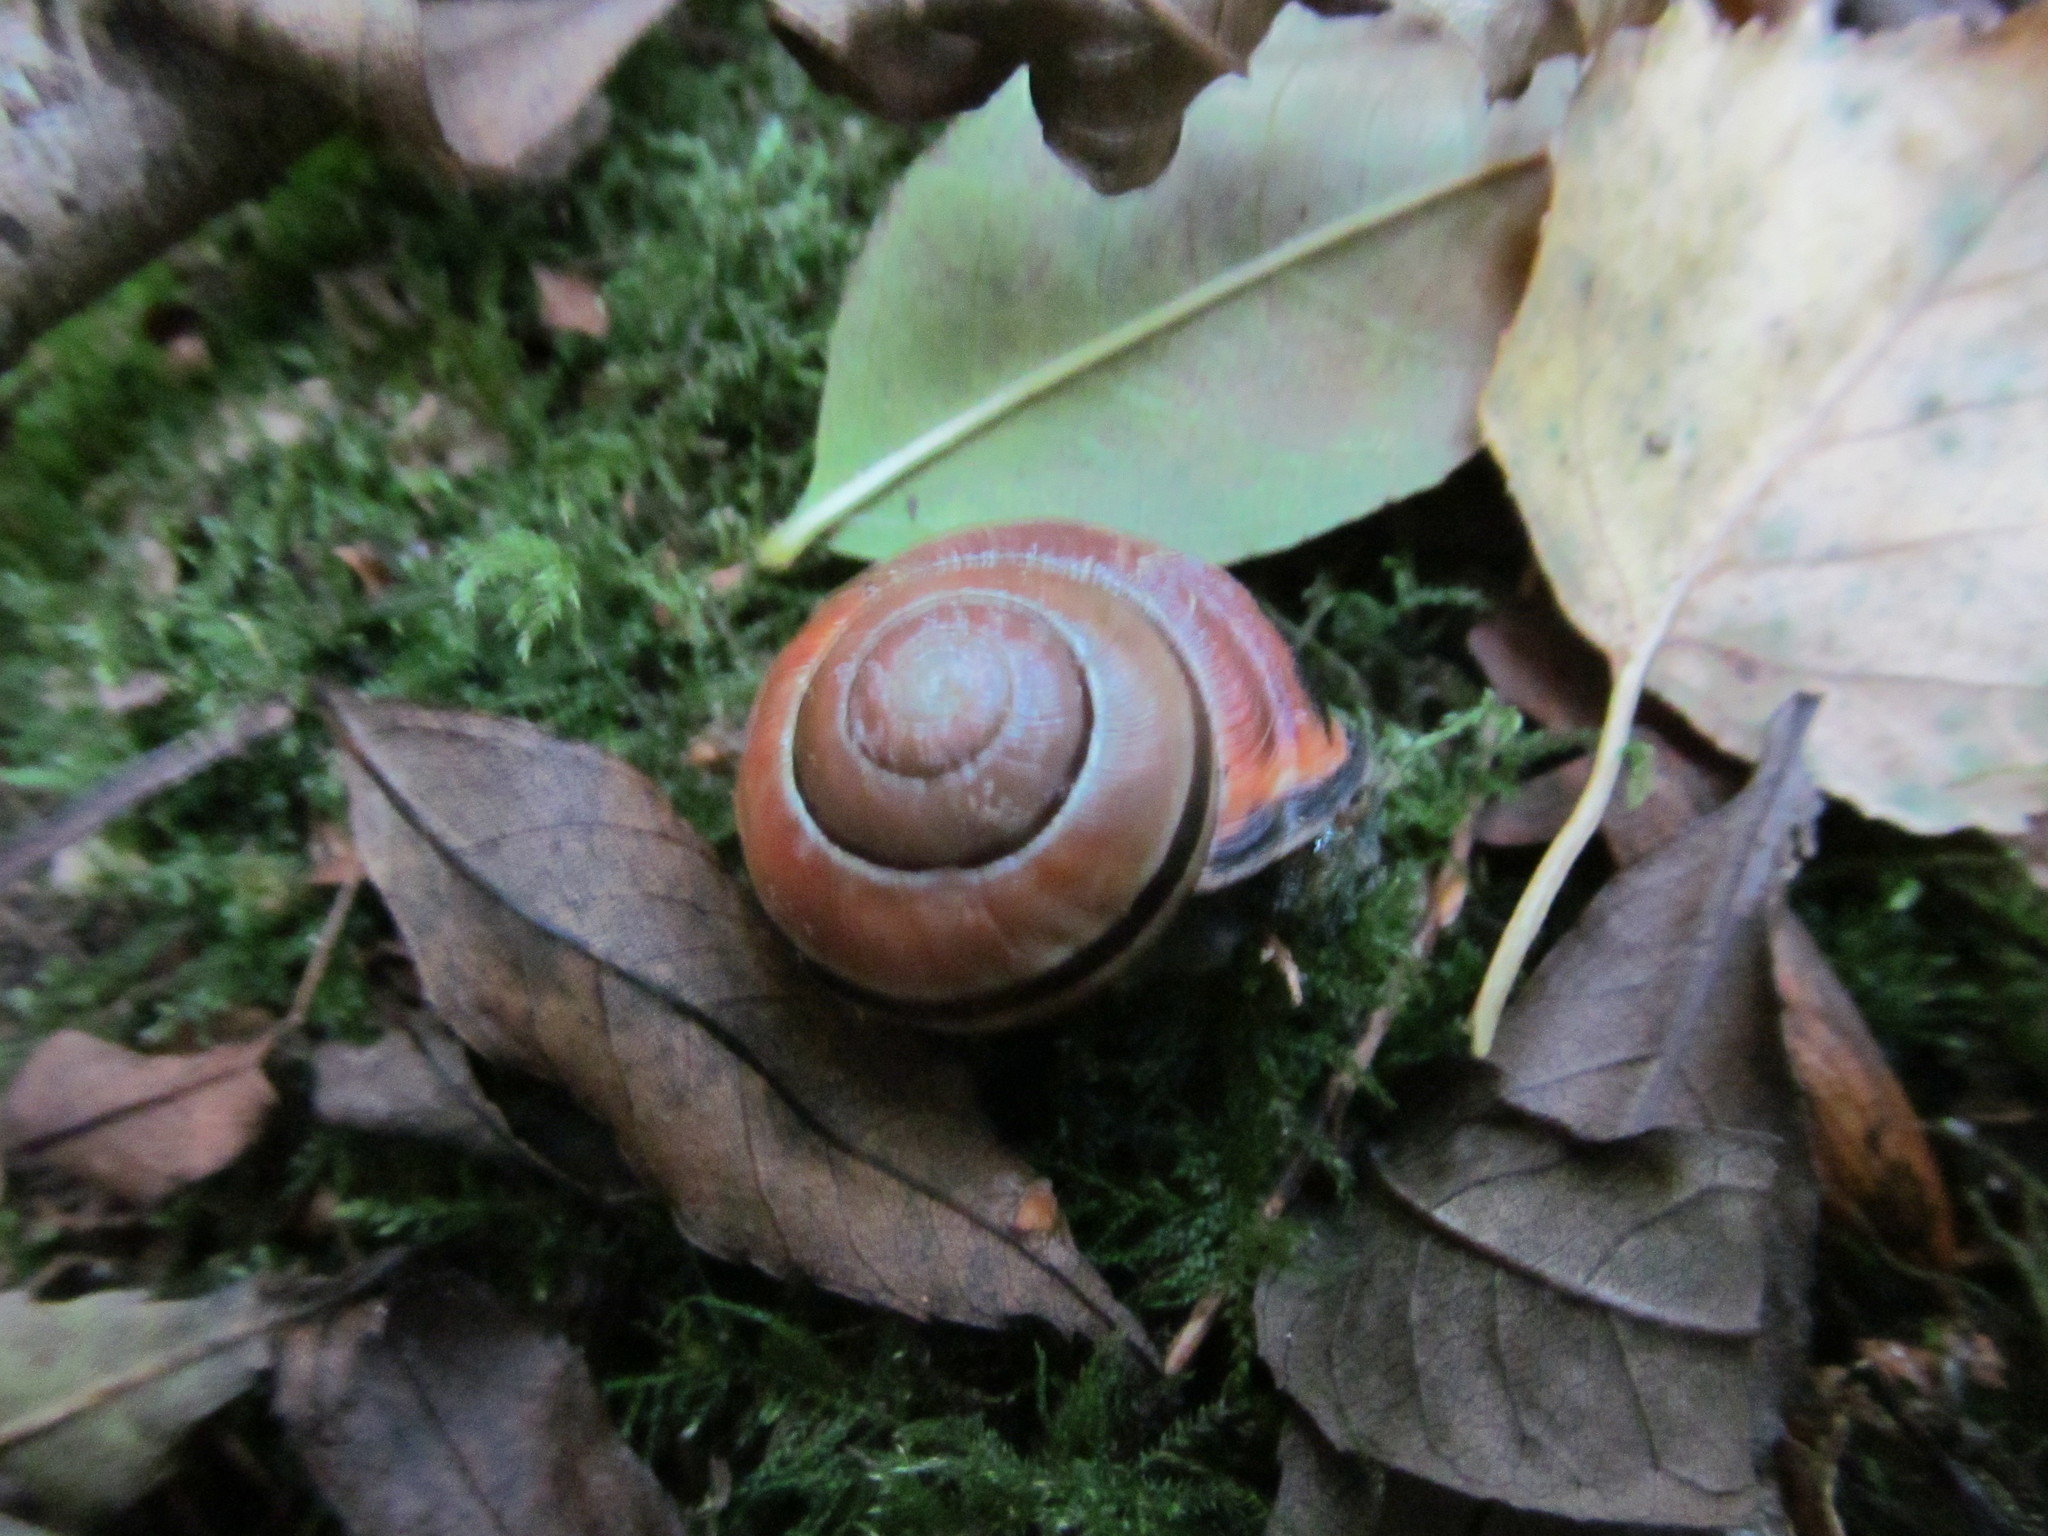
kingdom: Animalia
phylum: Mollusca
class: Gastropoda
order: Stylommatophora
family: Helicidae
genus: Cepaea
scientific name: Cepaea nemoralis
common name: Grovesnail
